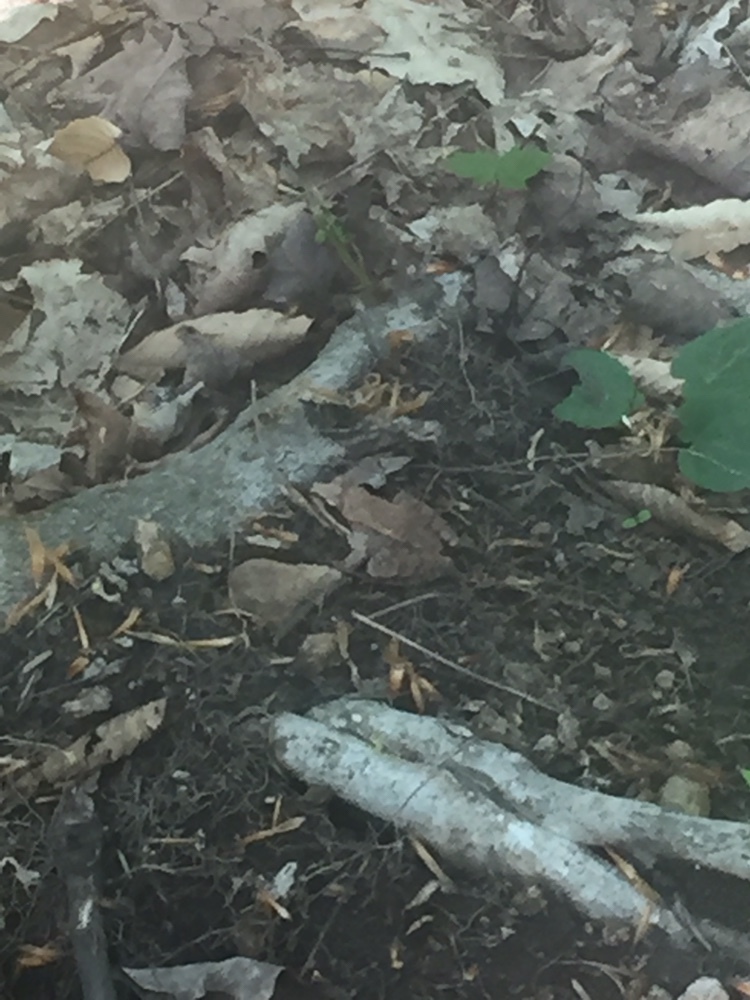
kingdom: Animalia
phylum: Chordata
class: Amphibia
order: Anura
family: Ranidae
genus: Lithobates
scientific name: Lithobates sylvaticus
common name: Wood frog
